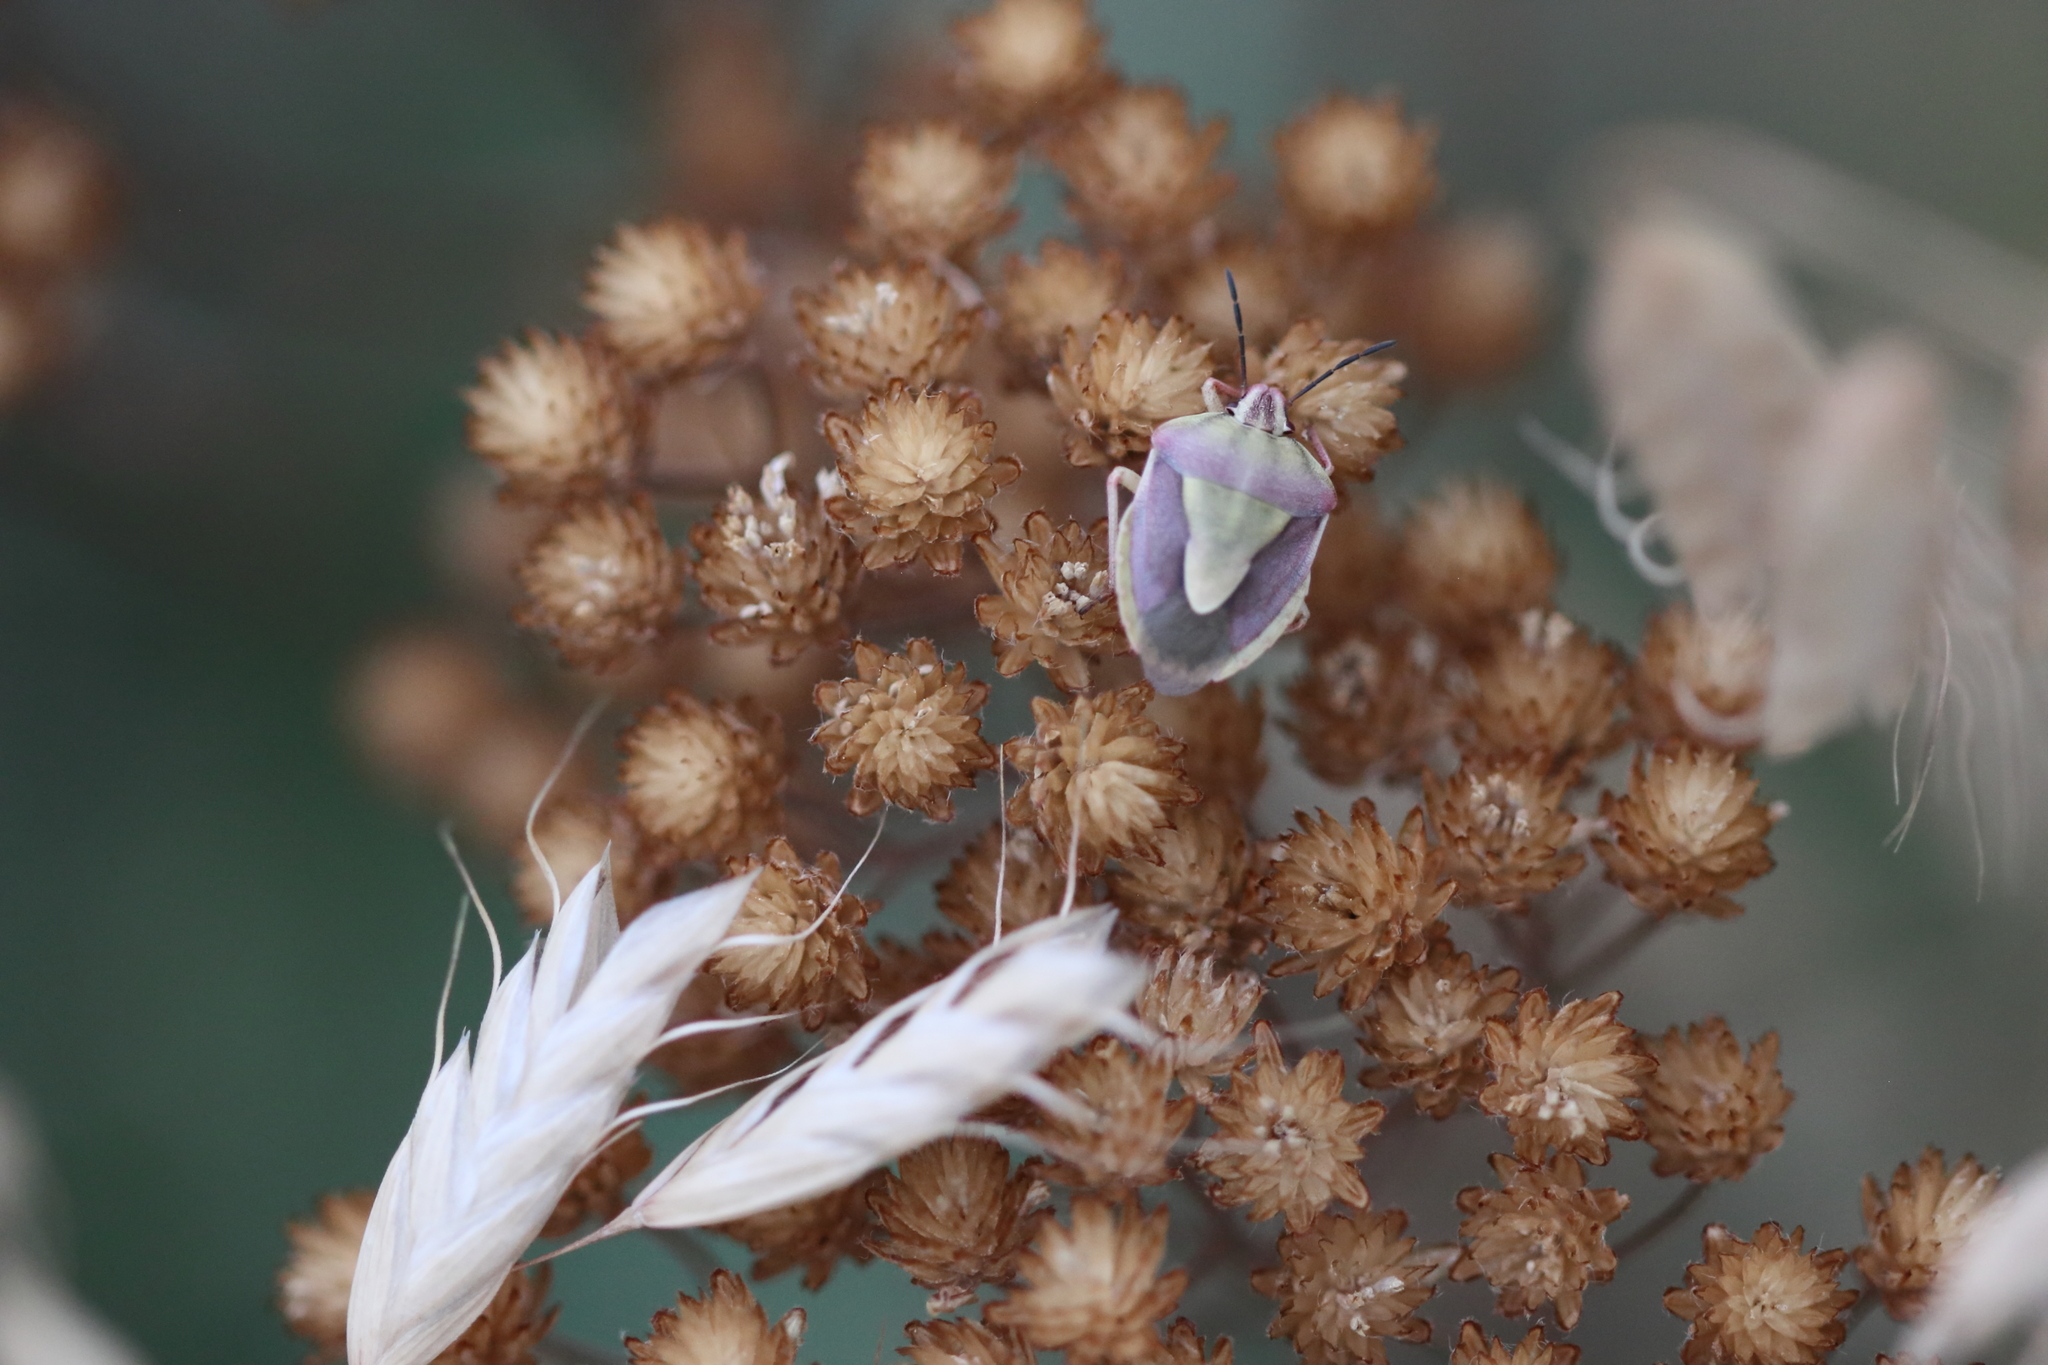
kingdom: Animalia
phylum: Arthropoda
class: Insecta
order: Hemiptera
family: Pentatomidae
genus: Antheminia
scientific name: Antheminia
